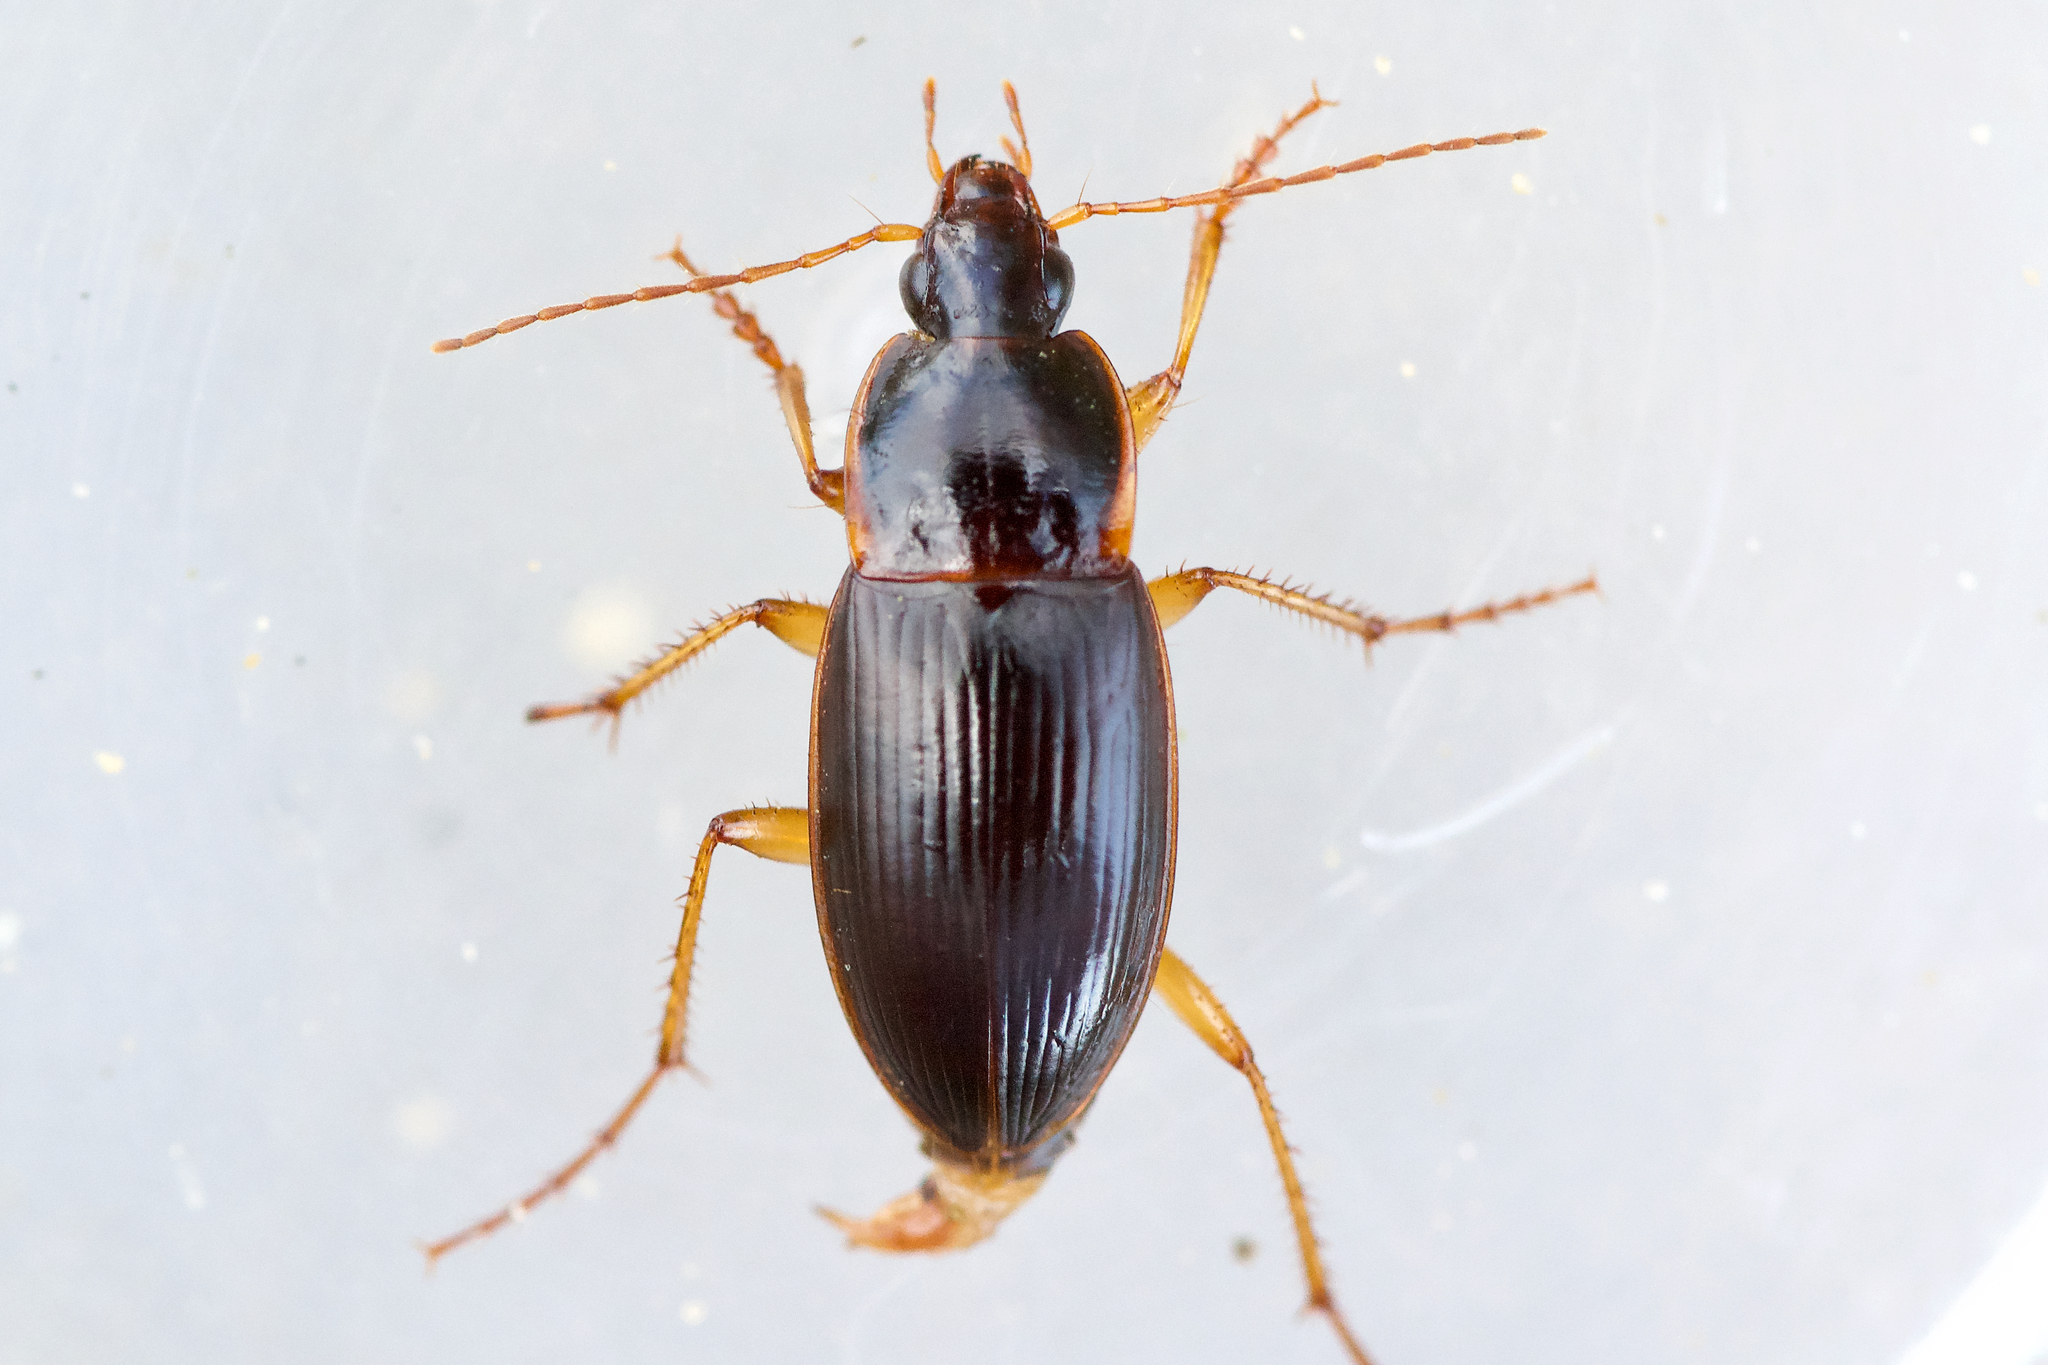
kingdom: Animalia
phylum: Arthropoda
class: Insecta
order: Coleoptera
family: Carabidae
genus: Calathus
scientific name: Calathus ingratus
